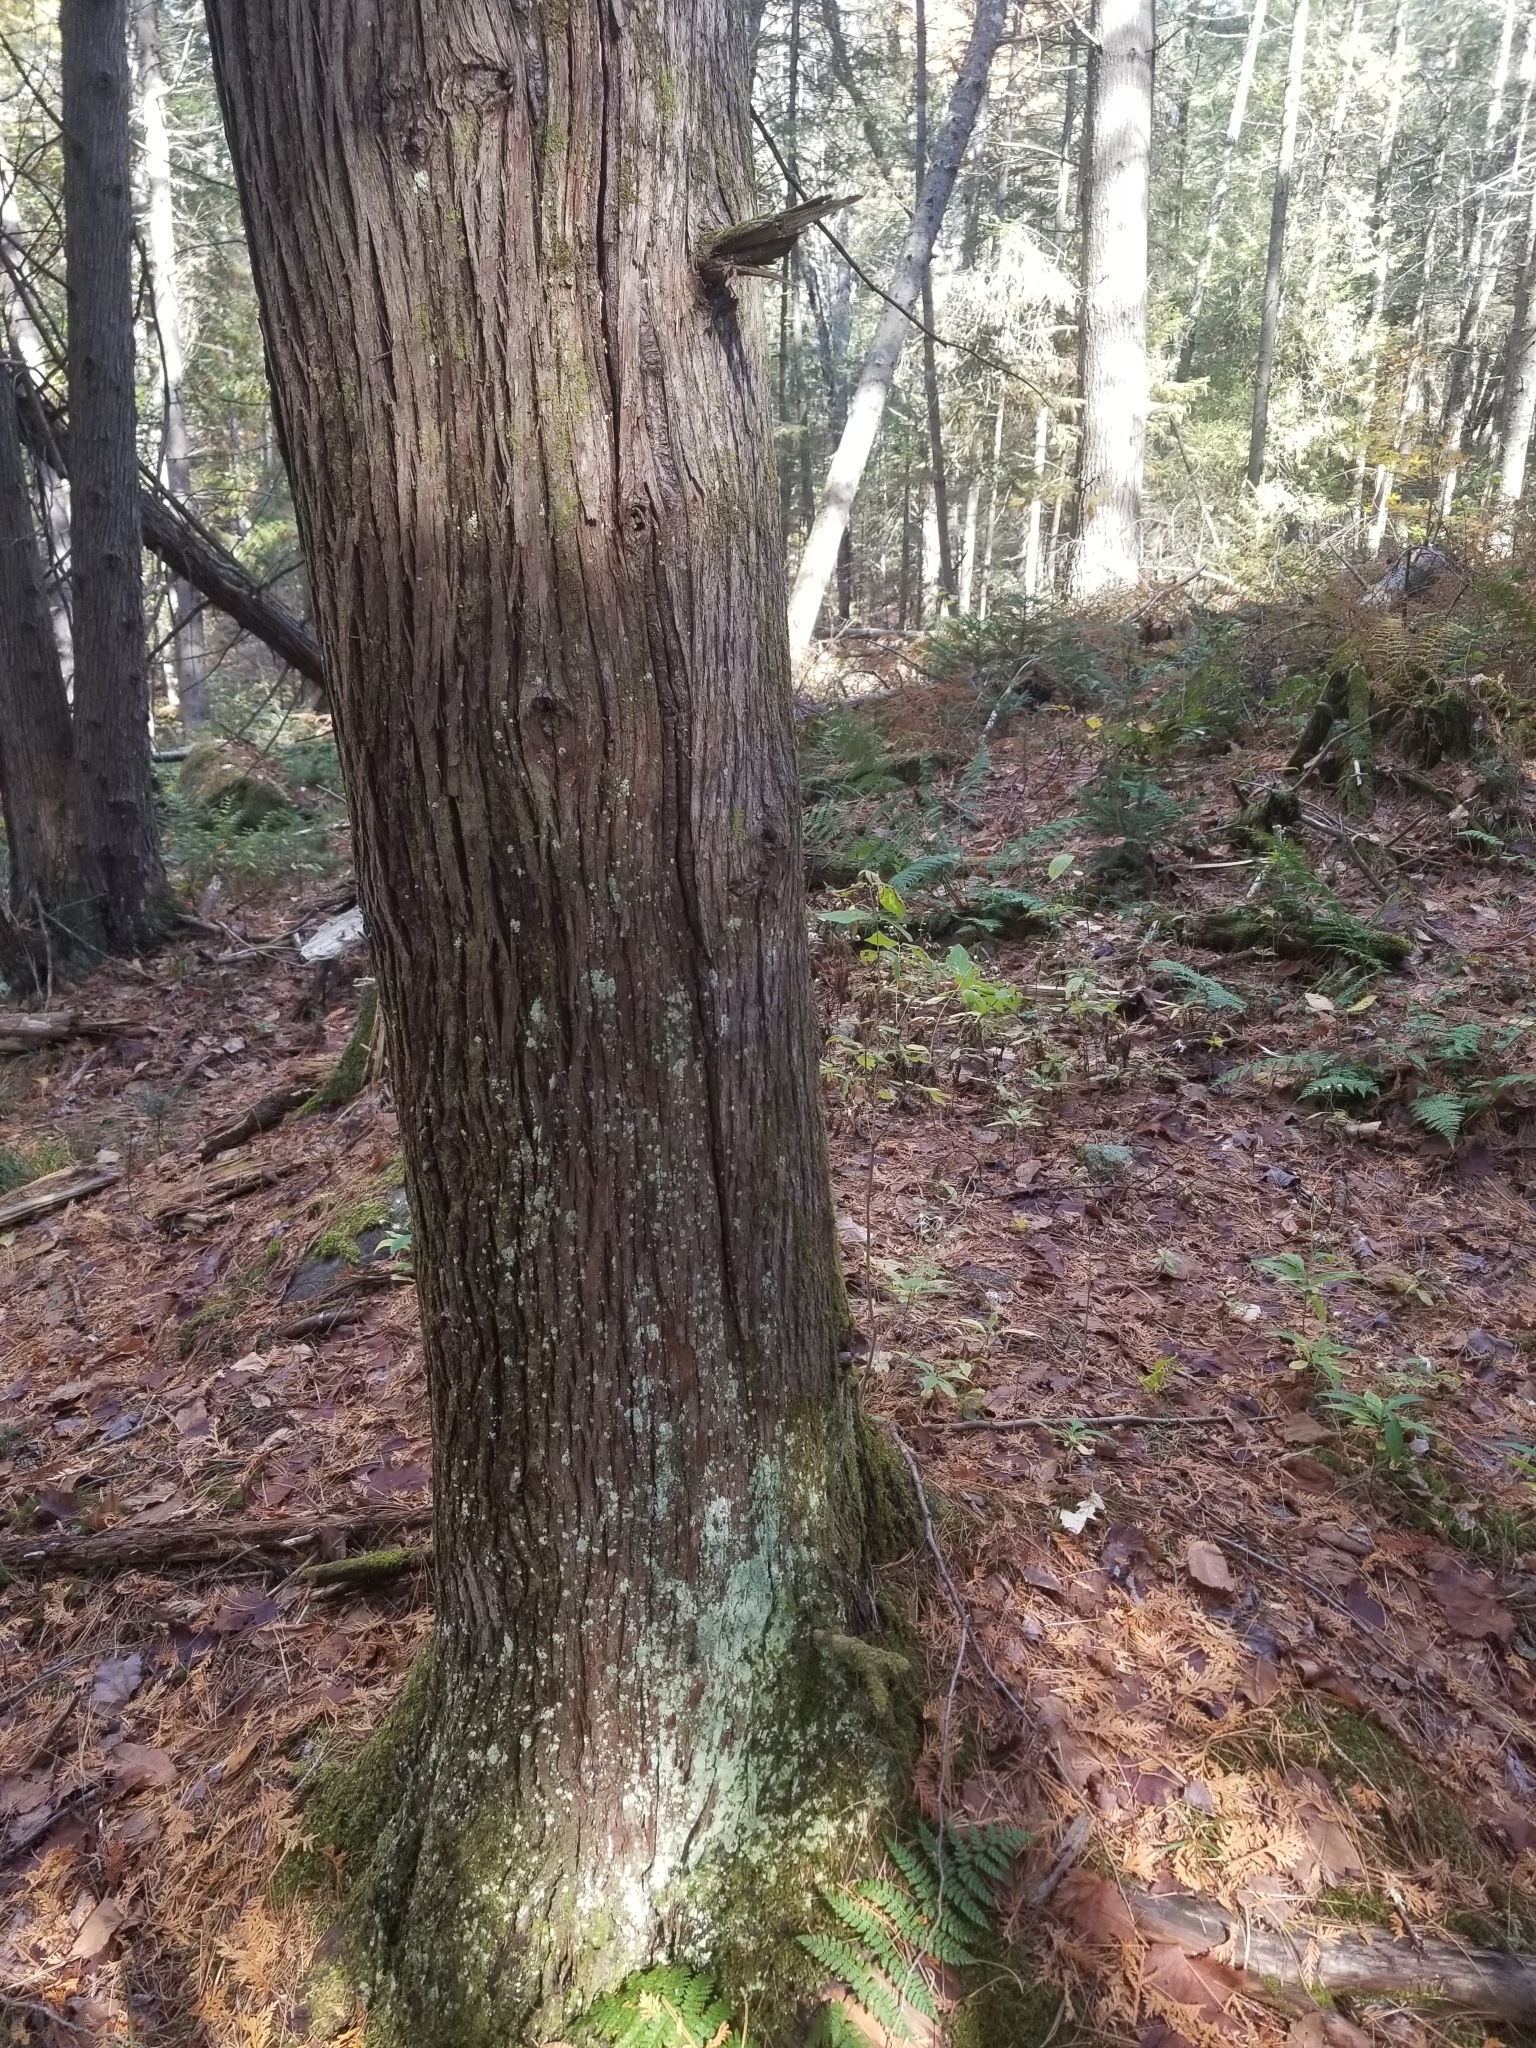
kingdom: Plantae
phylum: Tracheophyta
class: Pinopsida
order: Pinales
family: Cupressaceae
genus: Thuja
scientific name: Thuja occidentalis
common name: Northern white-cedar
